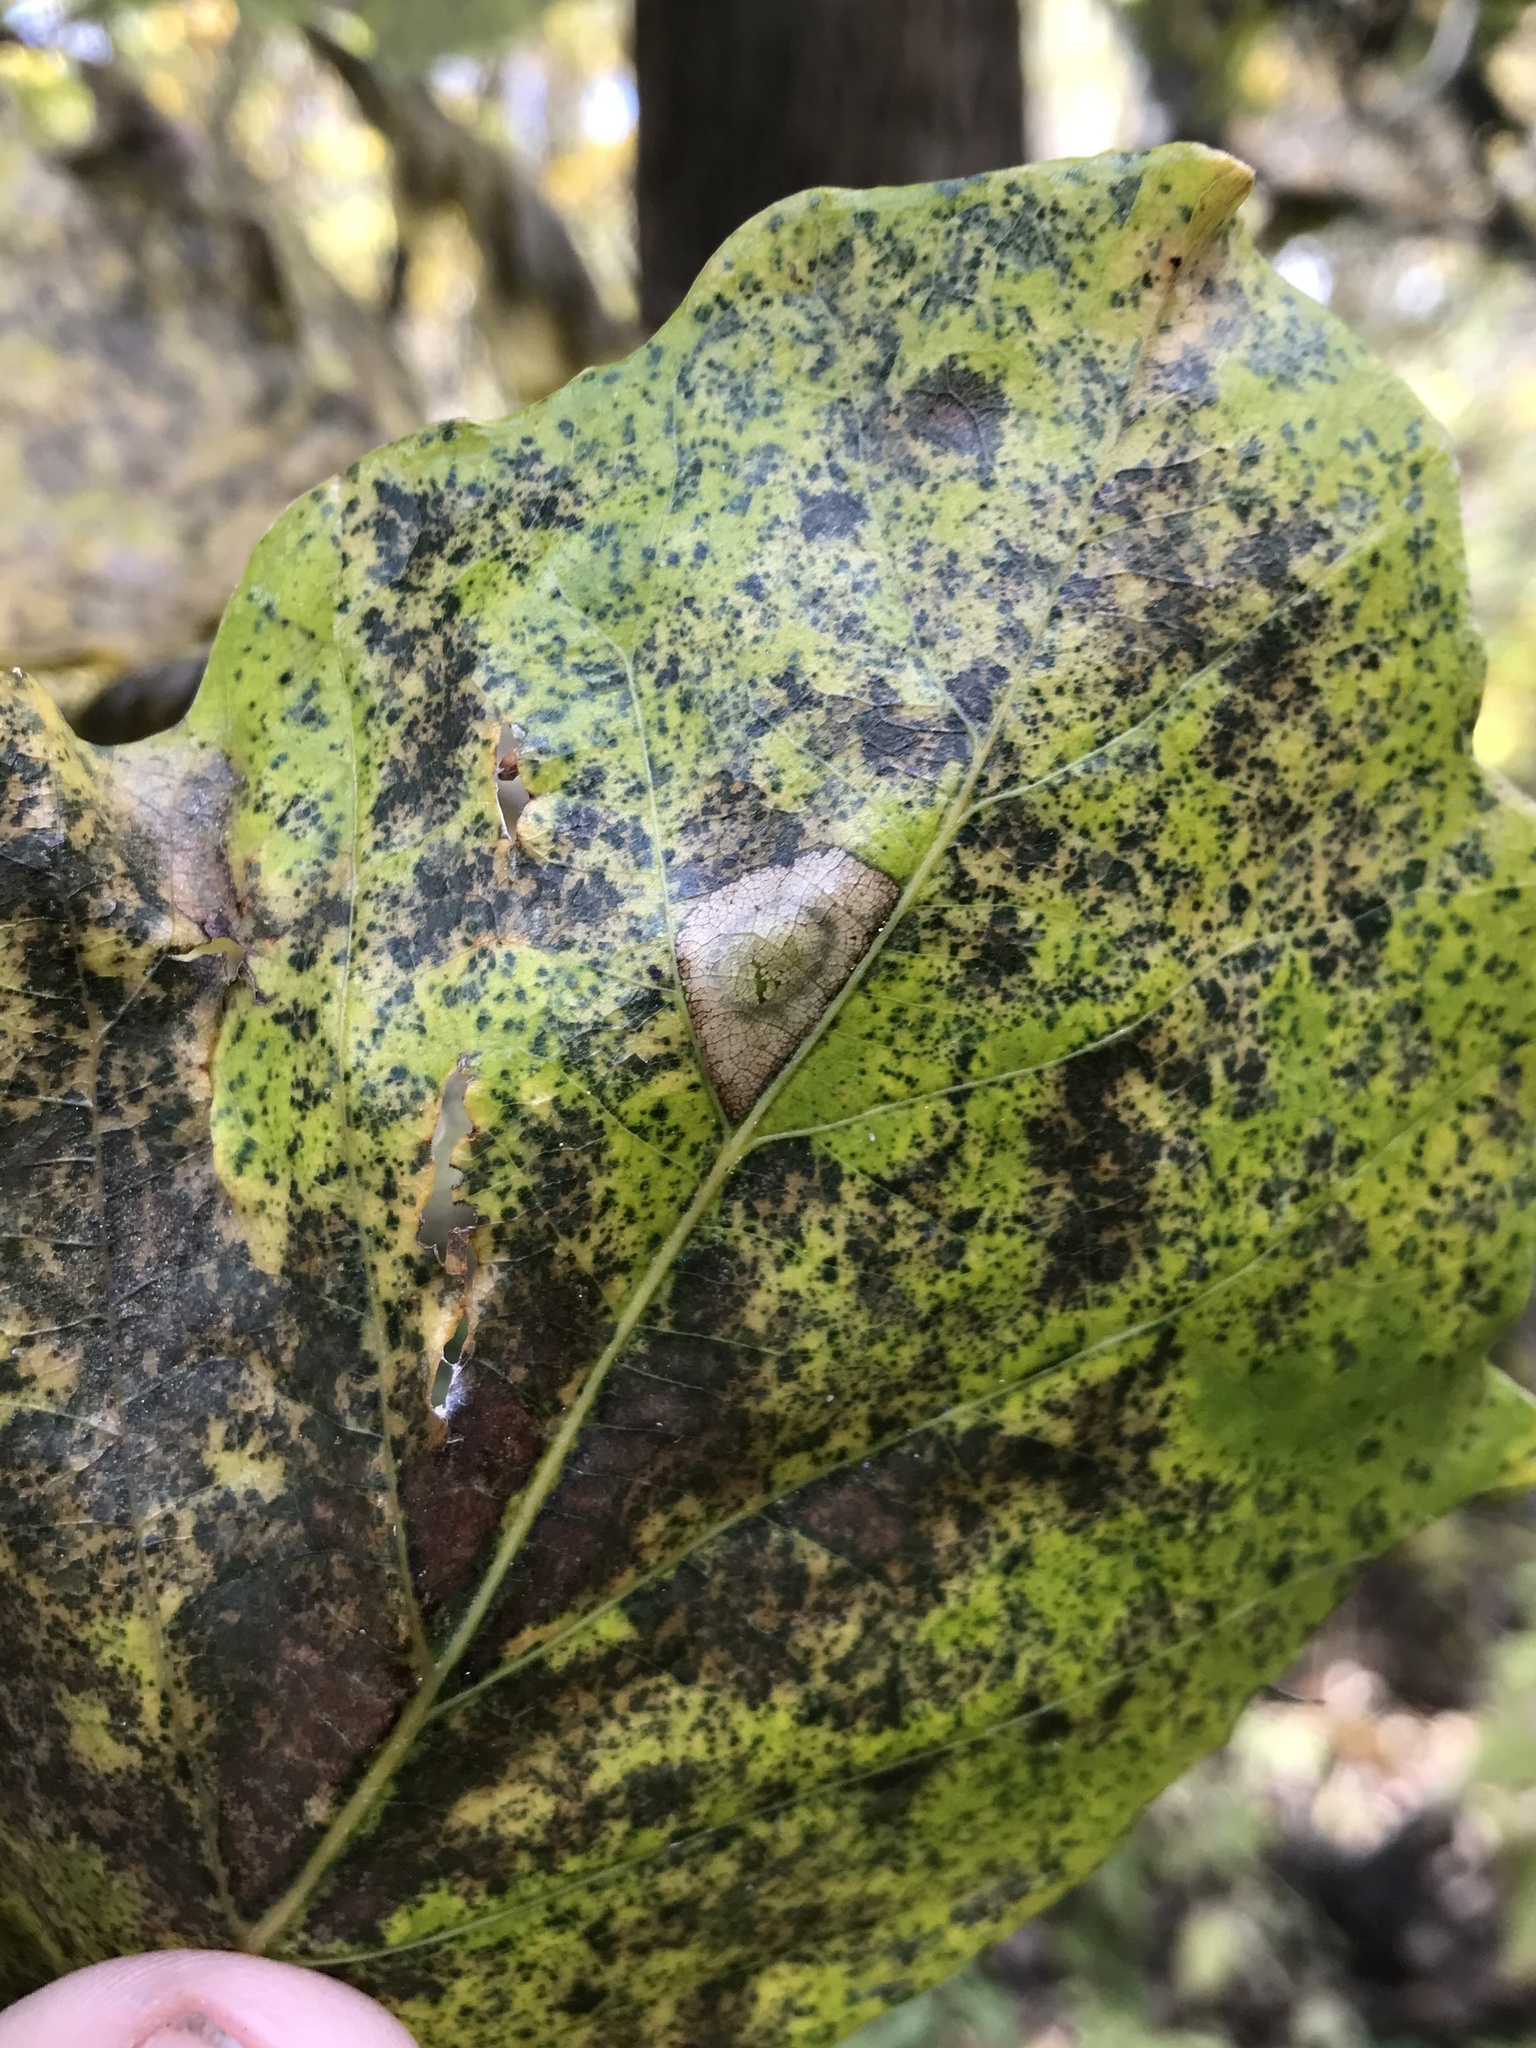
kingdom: Animalia
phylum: Arthropoda
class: Insecta
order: Lepidoptera
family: Gracillariidae
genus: Phyllonorycter
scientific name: Phyllonorycter basistrigella
